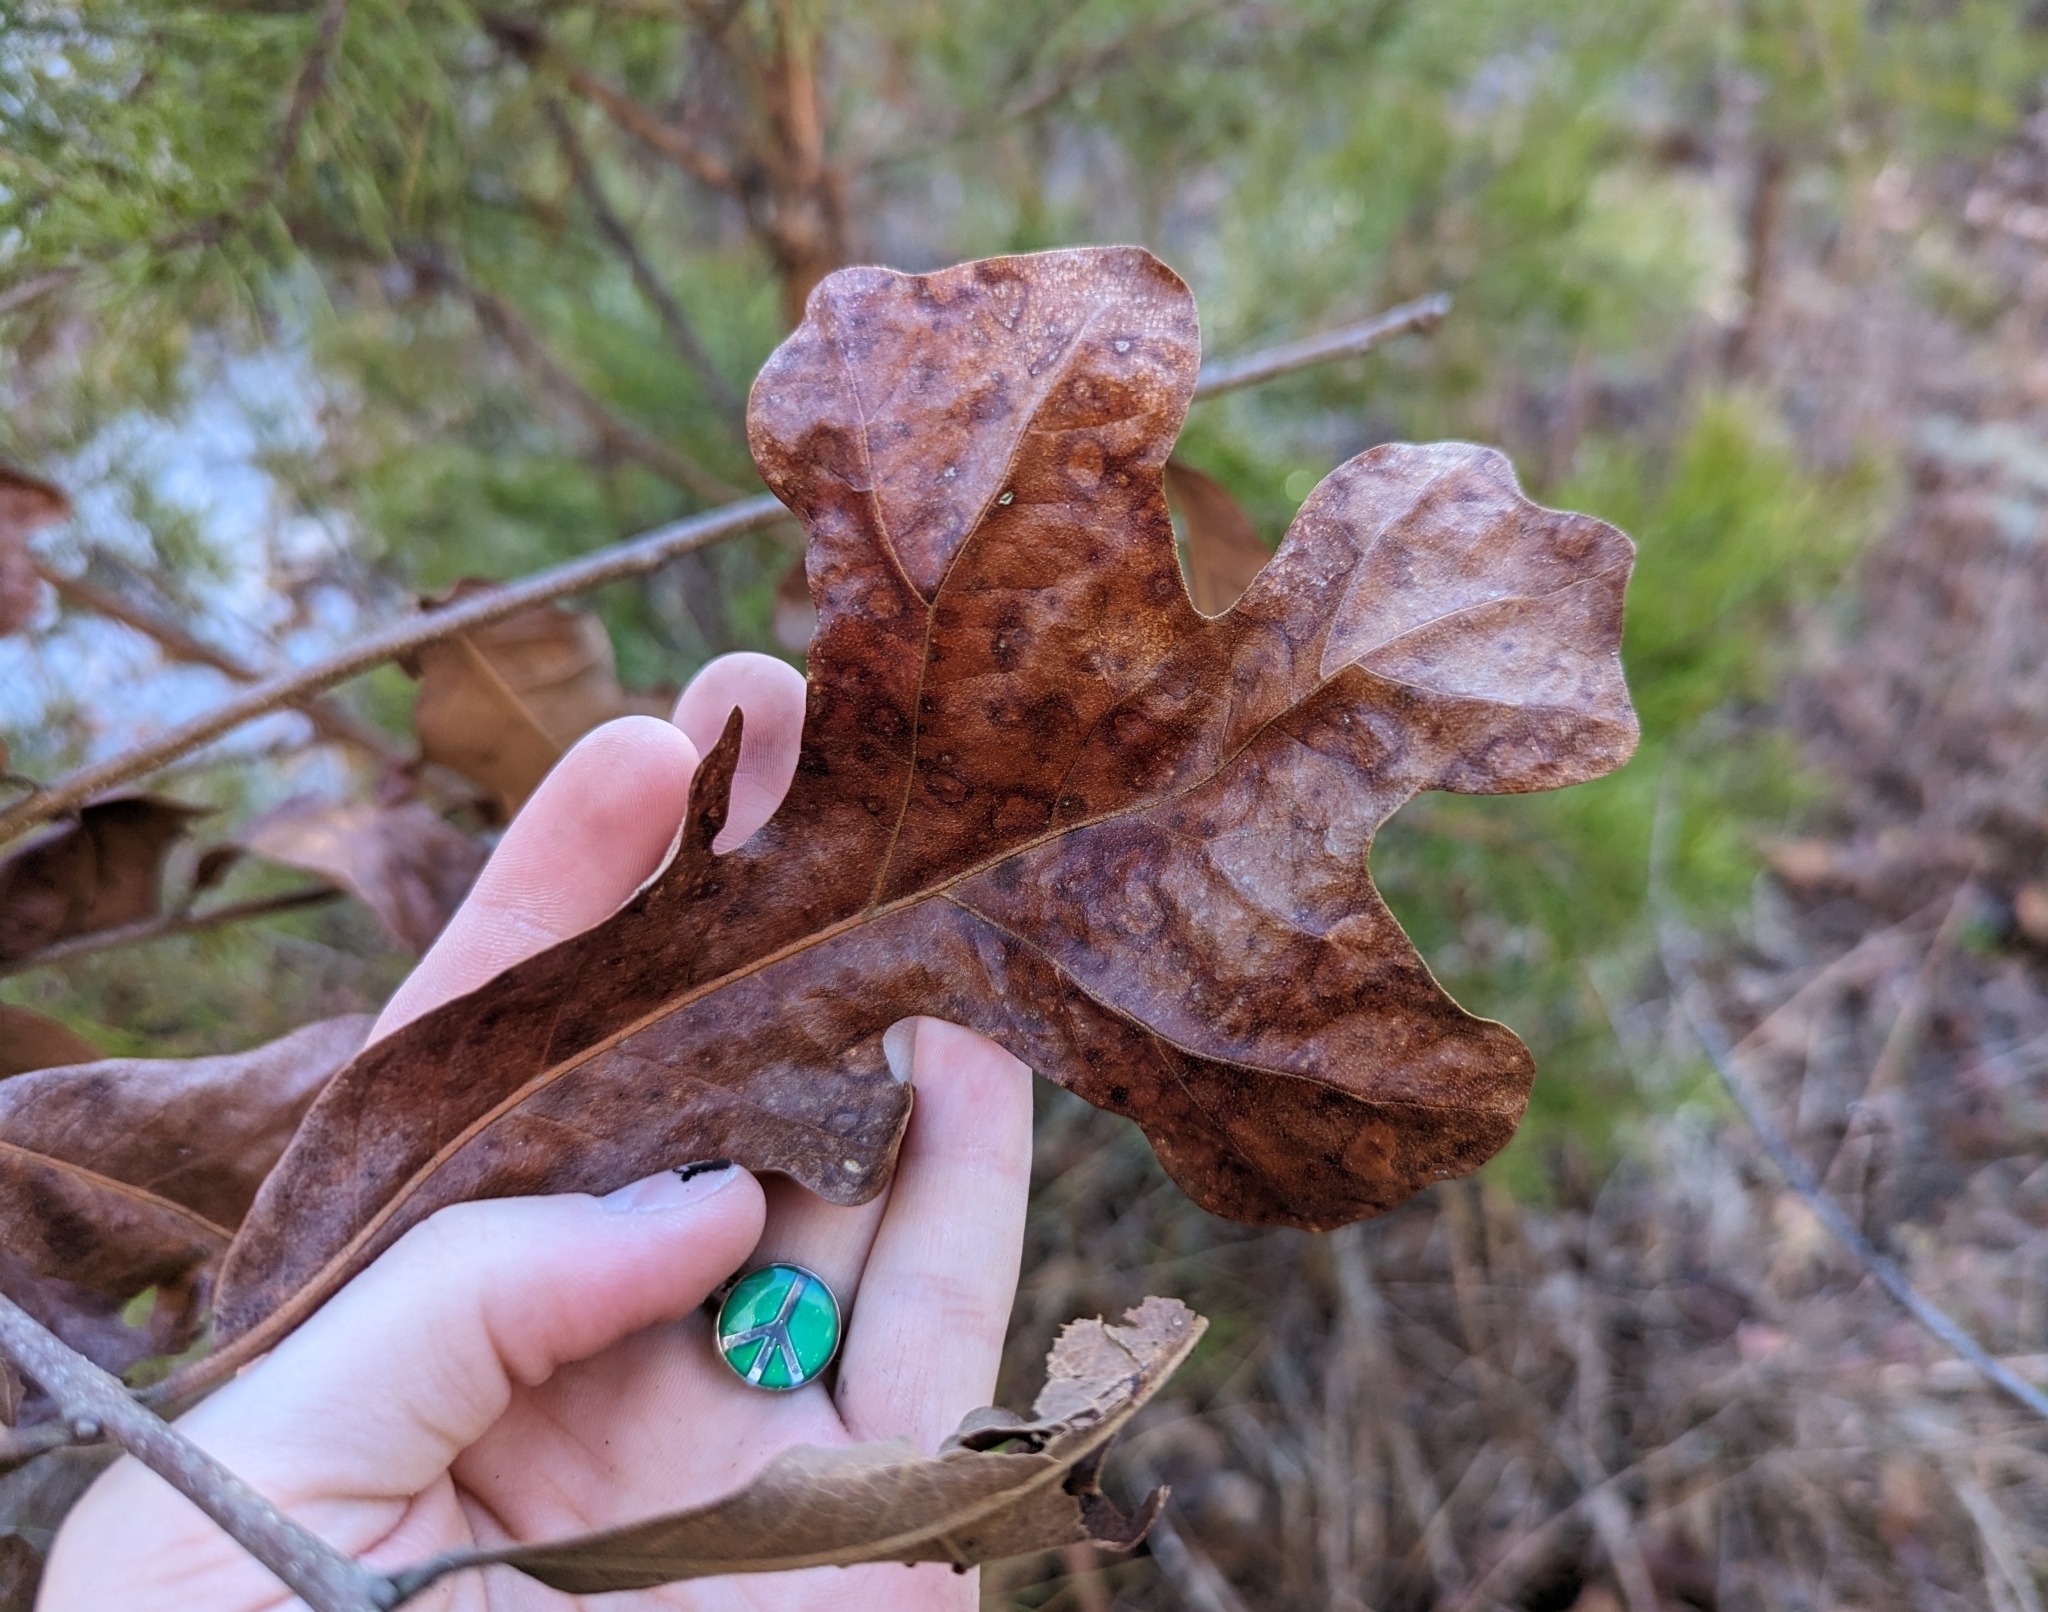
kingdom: Plantae
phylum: Tracheophyta
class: Magnoliopsida
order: Fagales
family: Fagaceae
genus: Quercus
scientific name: Quercus stellata
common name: Post oak
